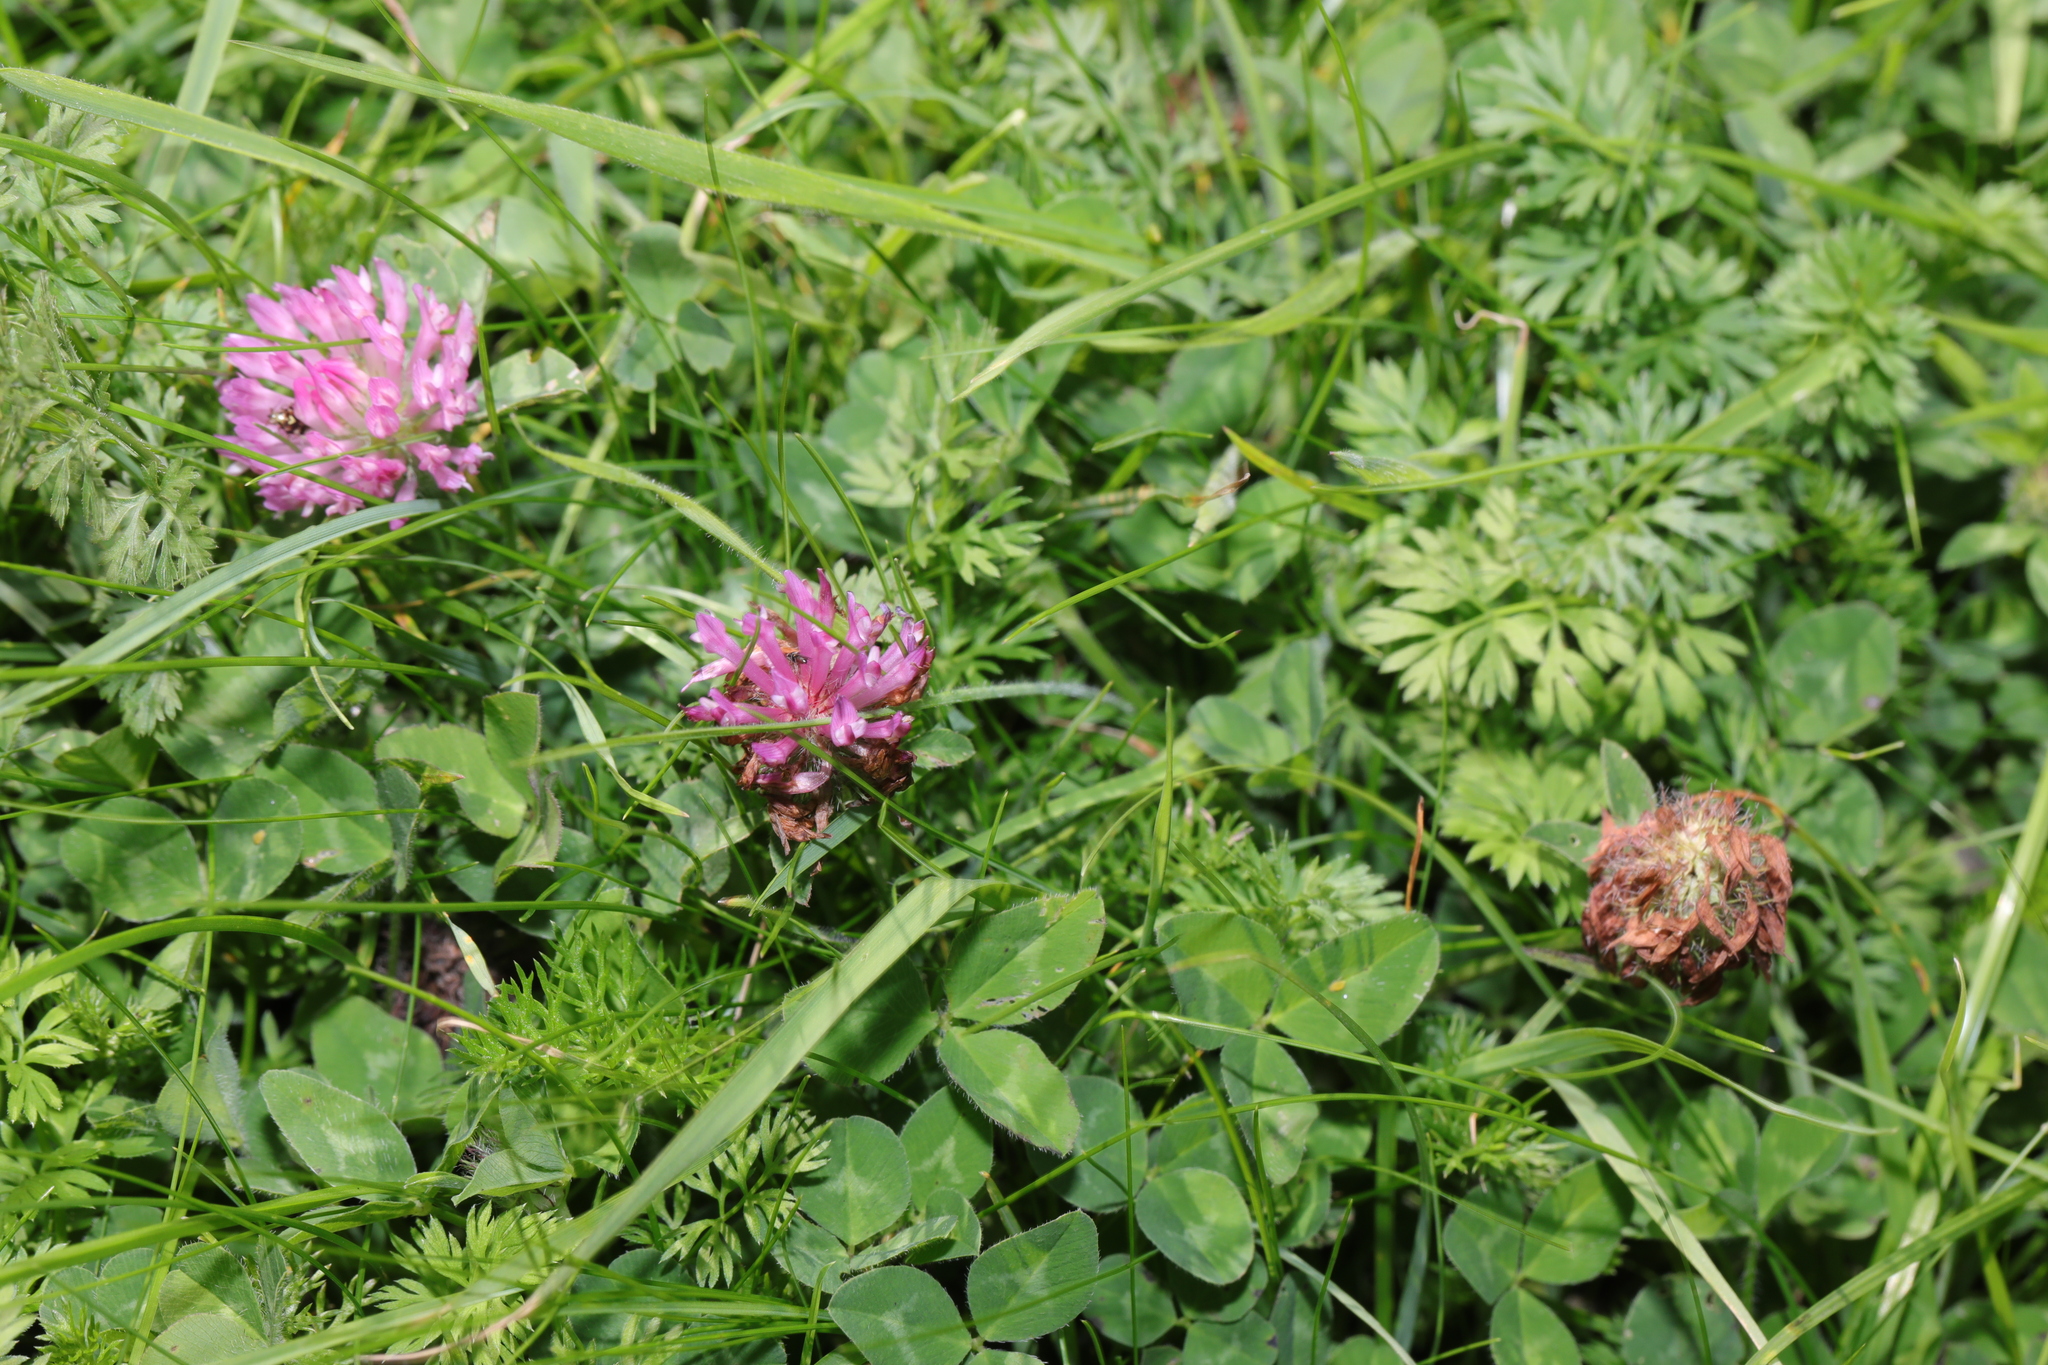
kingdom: Plantae
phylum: Tracheophyta
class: Magnoliopsida
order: Fabales
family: Fabaceae
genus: Trifolium
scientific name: Trifolium pratense
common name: Red clover
